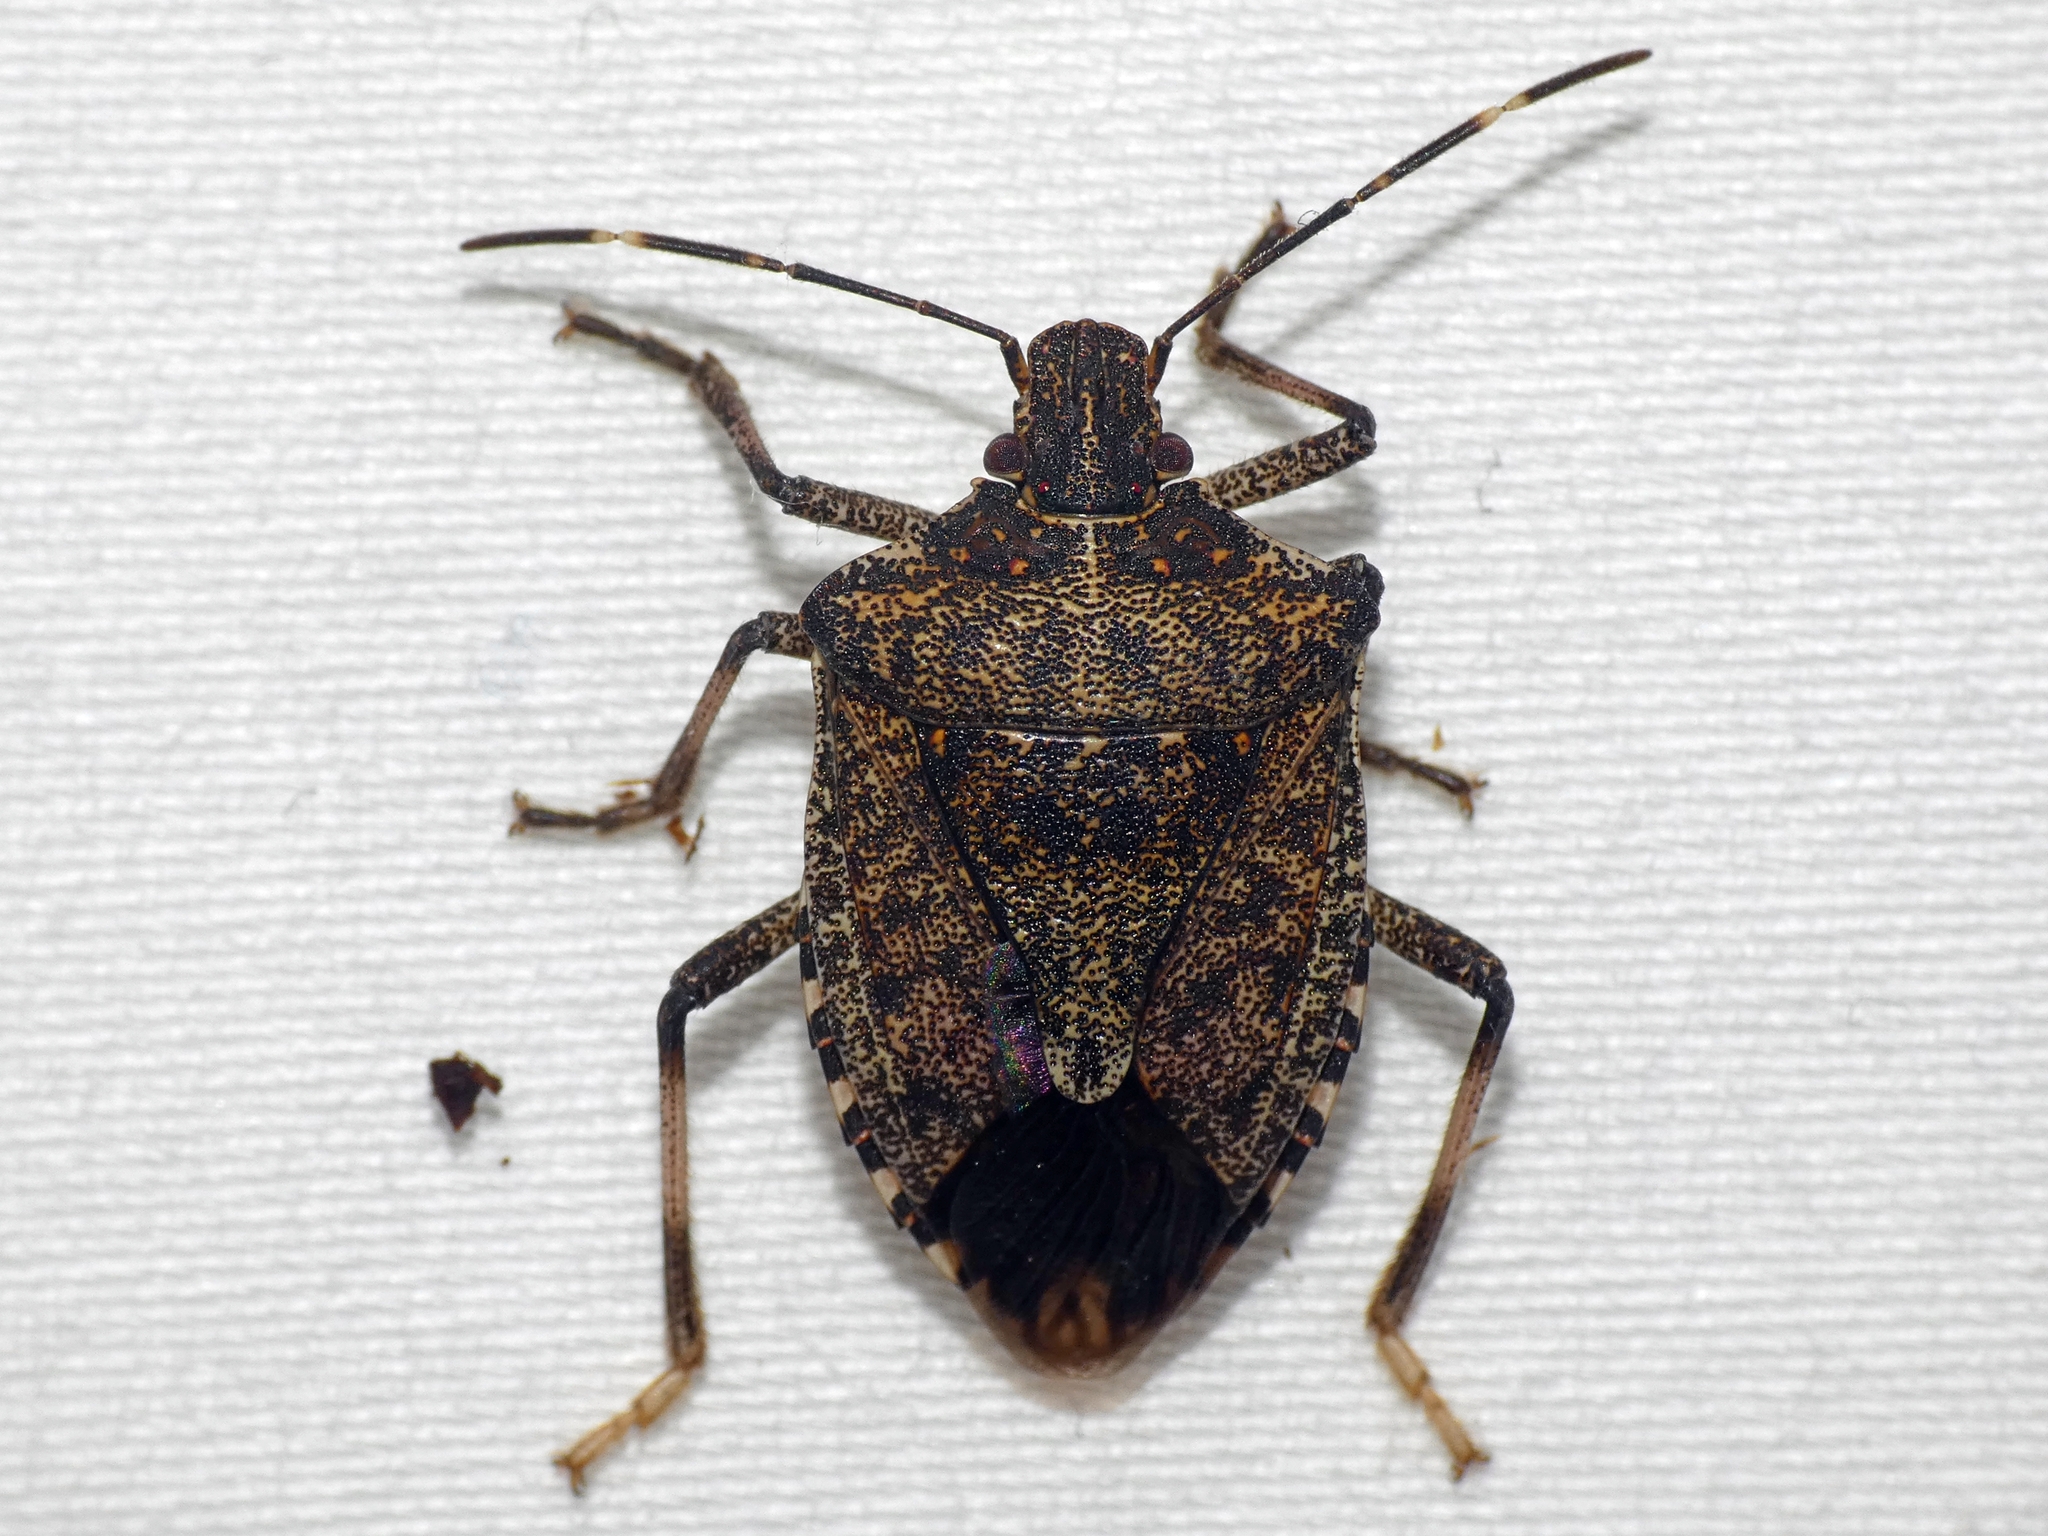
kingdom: Animalia
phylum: Arthropoda
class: Insecta
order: Hemiptera
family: Pentatomidae
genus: Halyomorpha
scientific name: Halyomorpha halys
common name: Brown marmorated stink bug
